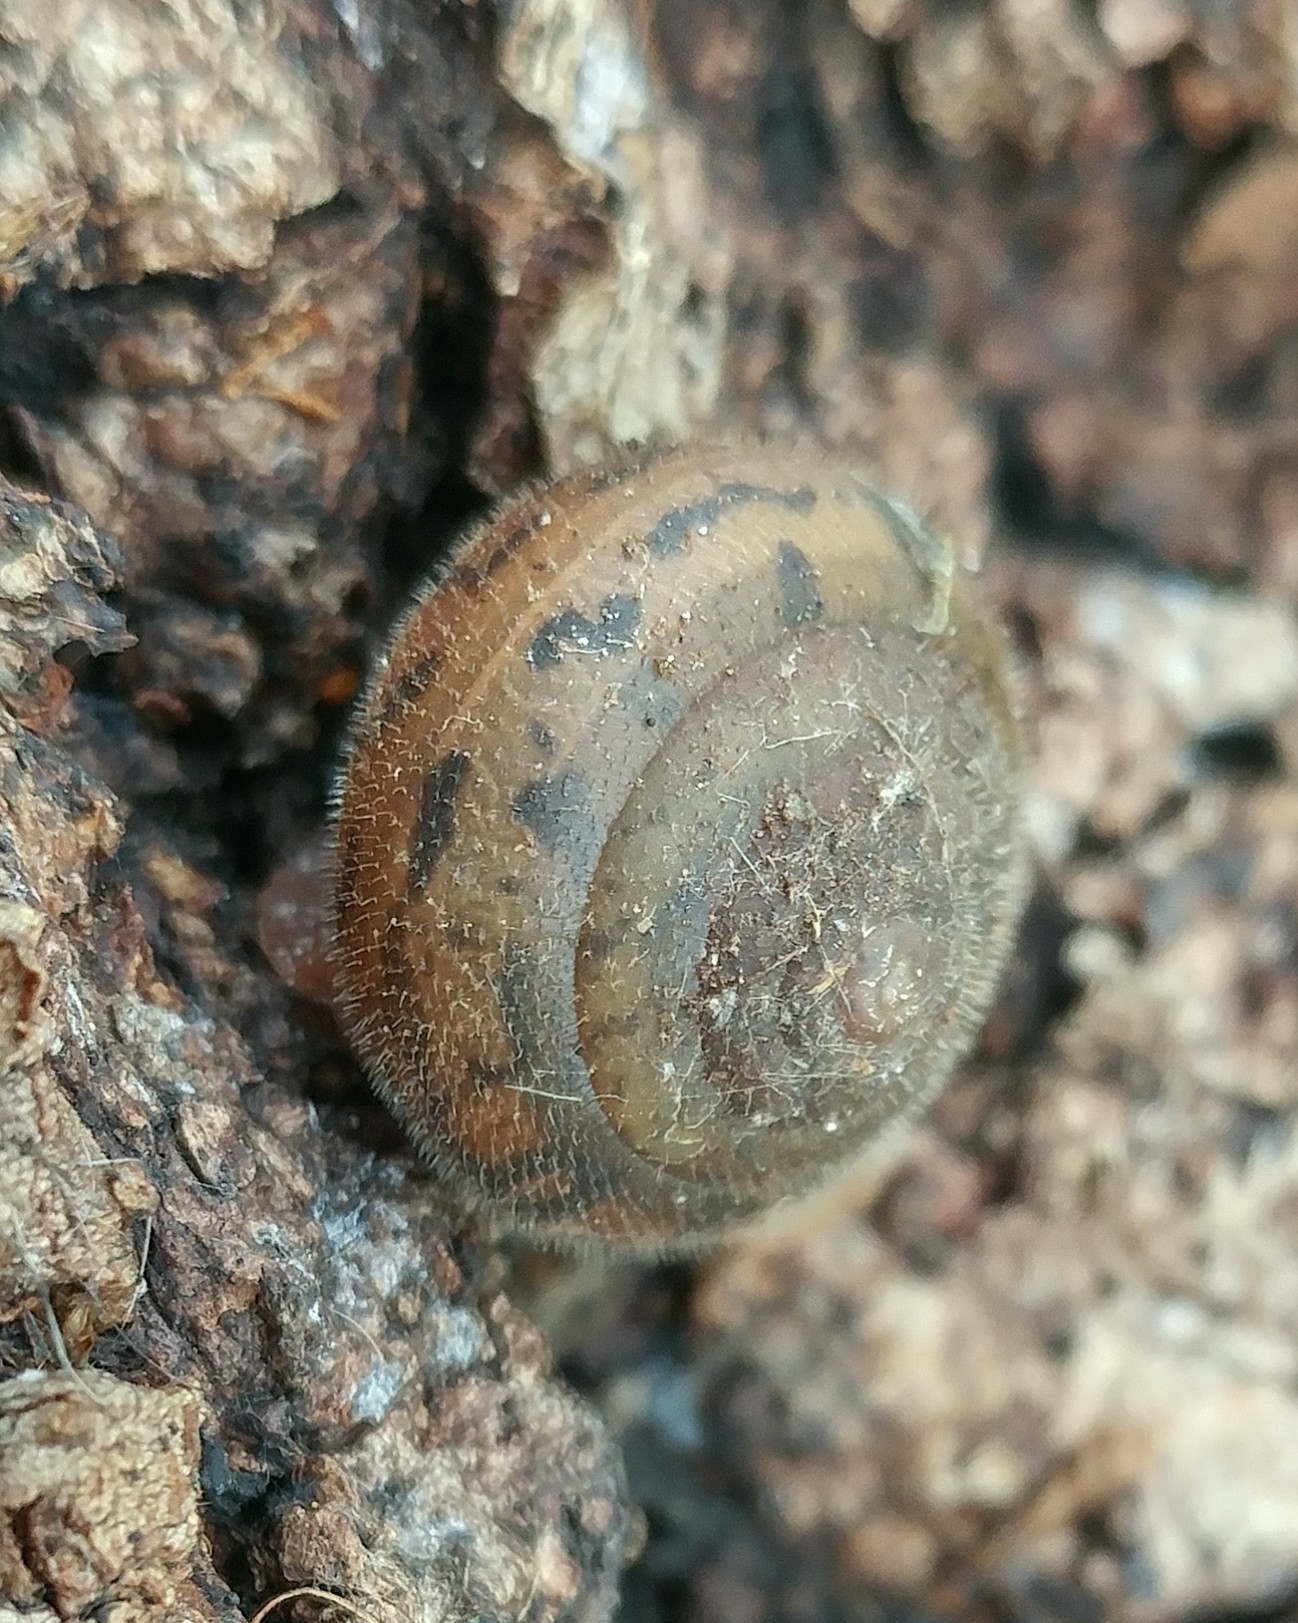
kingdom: Animalia
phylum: Mollusca
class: Gastropoda
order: Stylommatophora
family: Polygyridae
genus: Vespericola
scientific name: Vespericola columbianus
